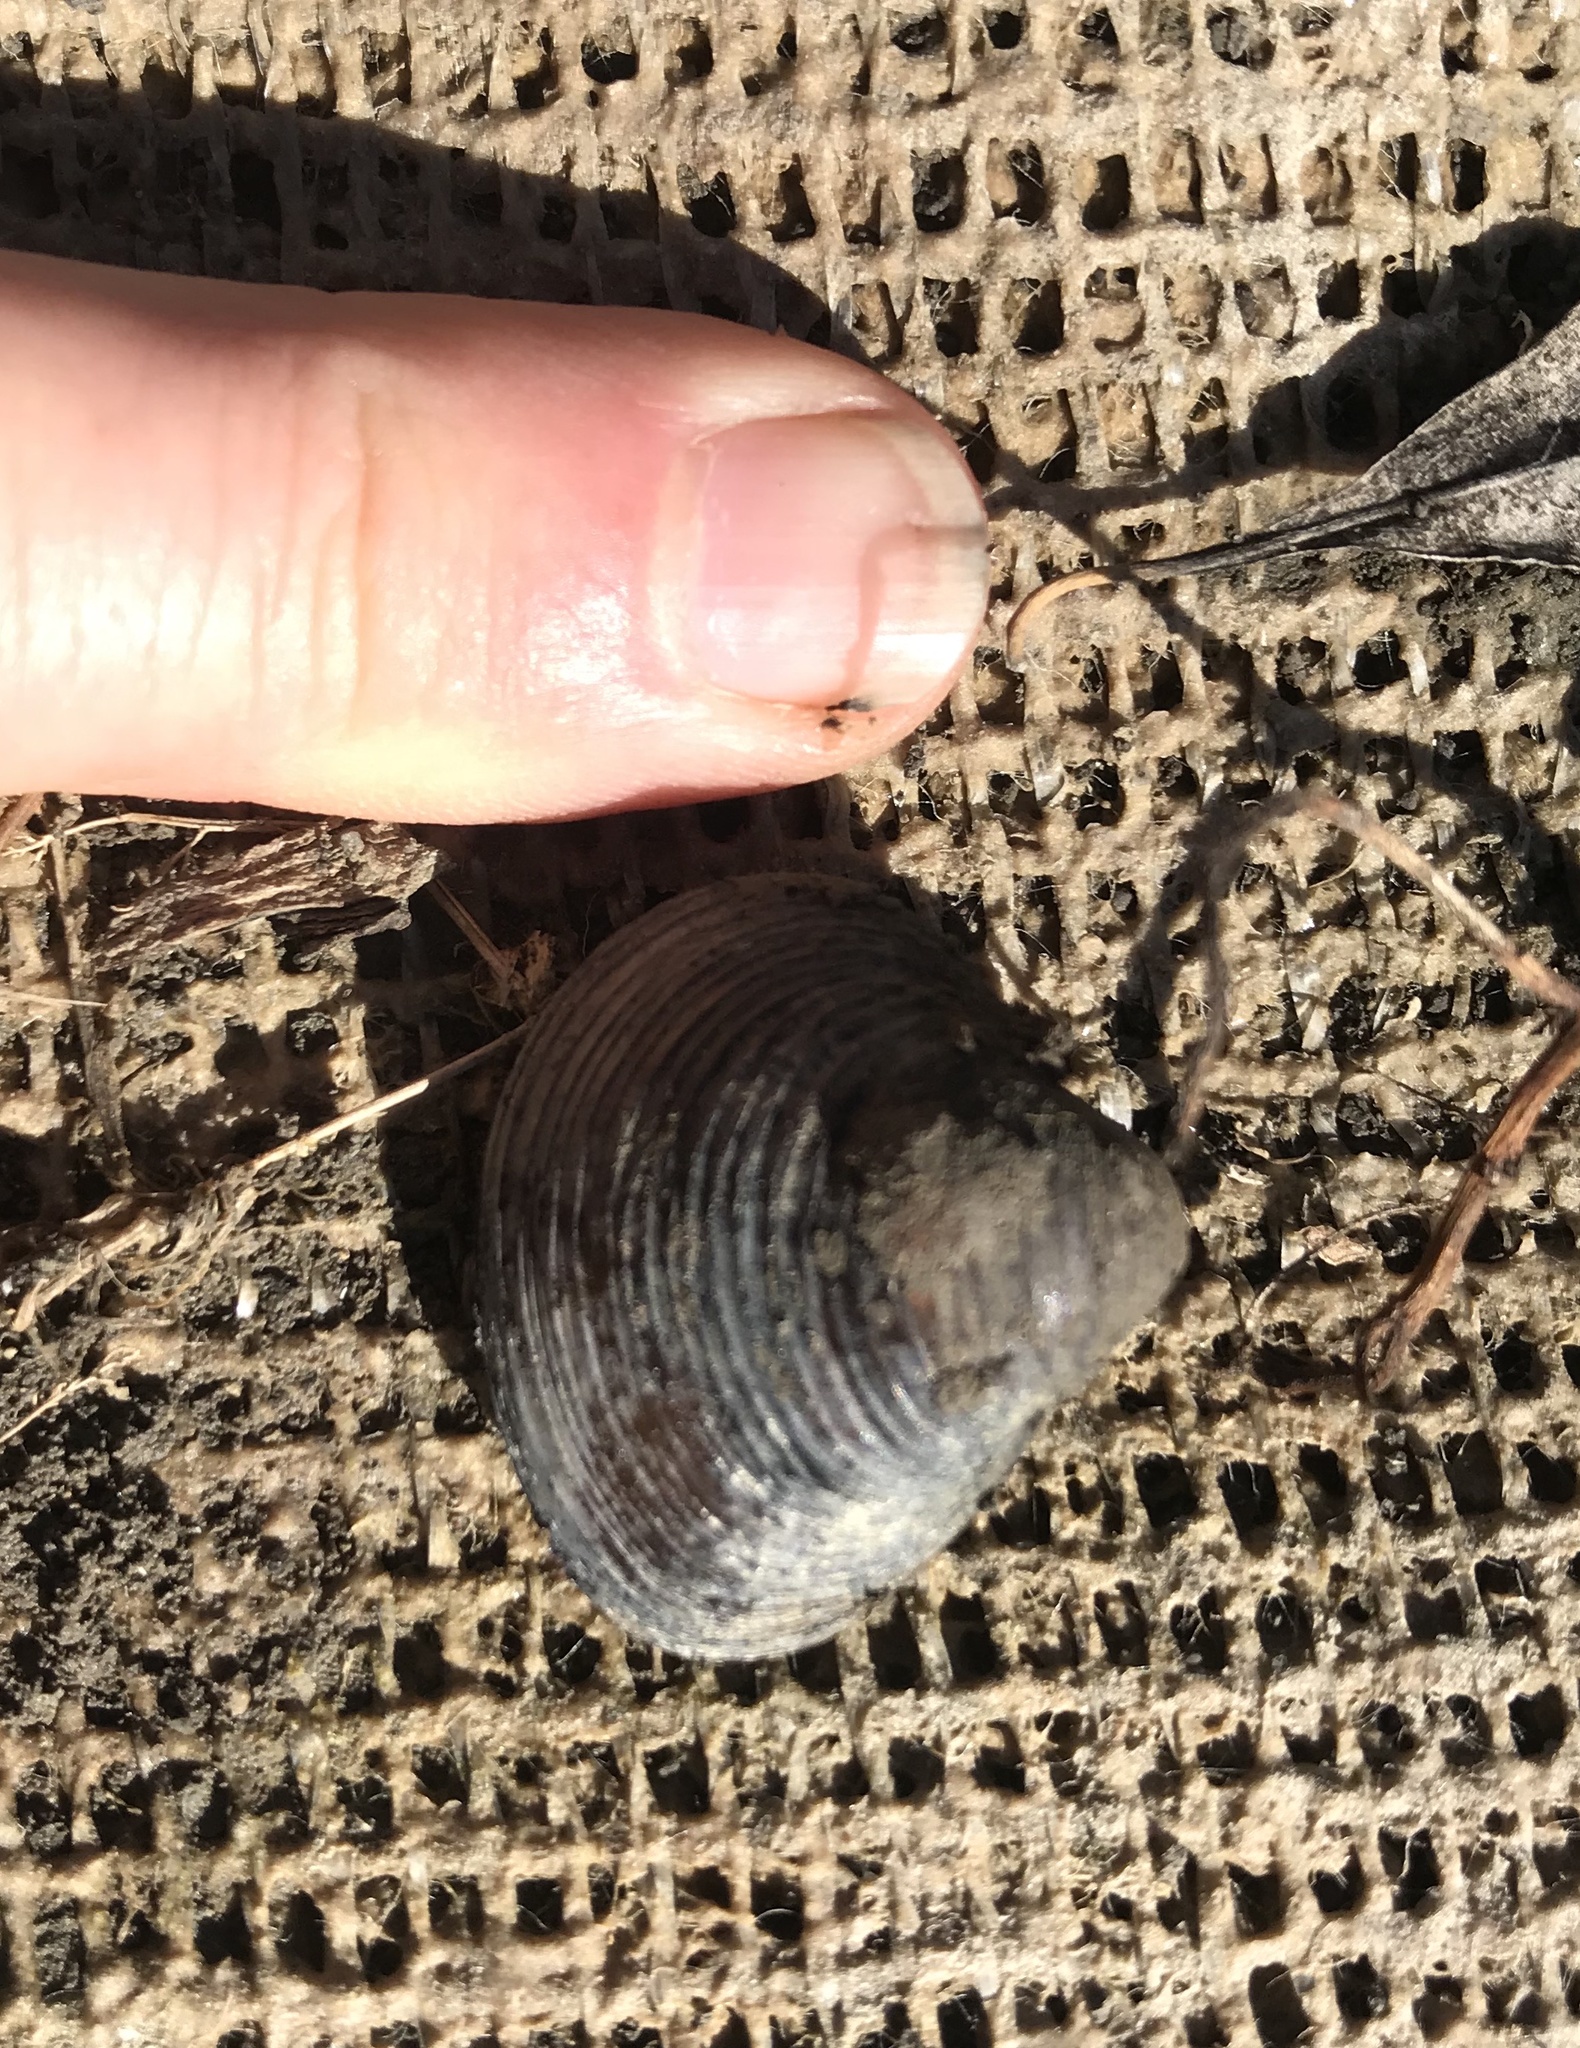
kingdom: Animalia
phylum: Mollusca
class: Bivalvia
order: Venerida
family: Cyrenidae
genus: Corbicula
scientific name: Corbicula fluminea
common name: Asian clam
